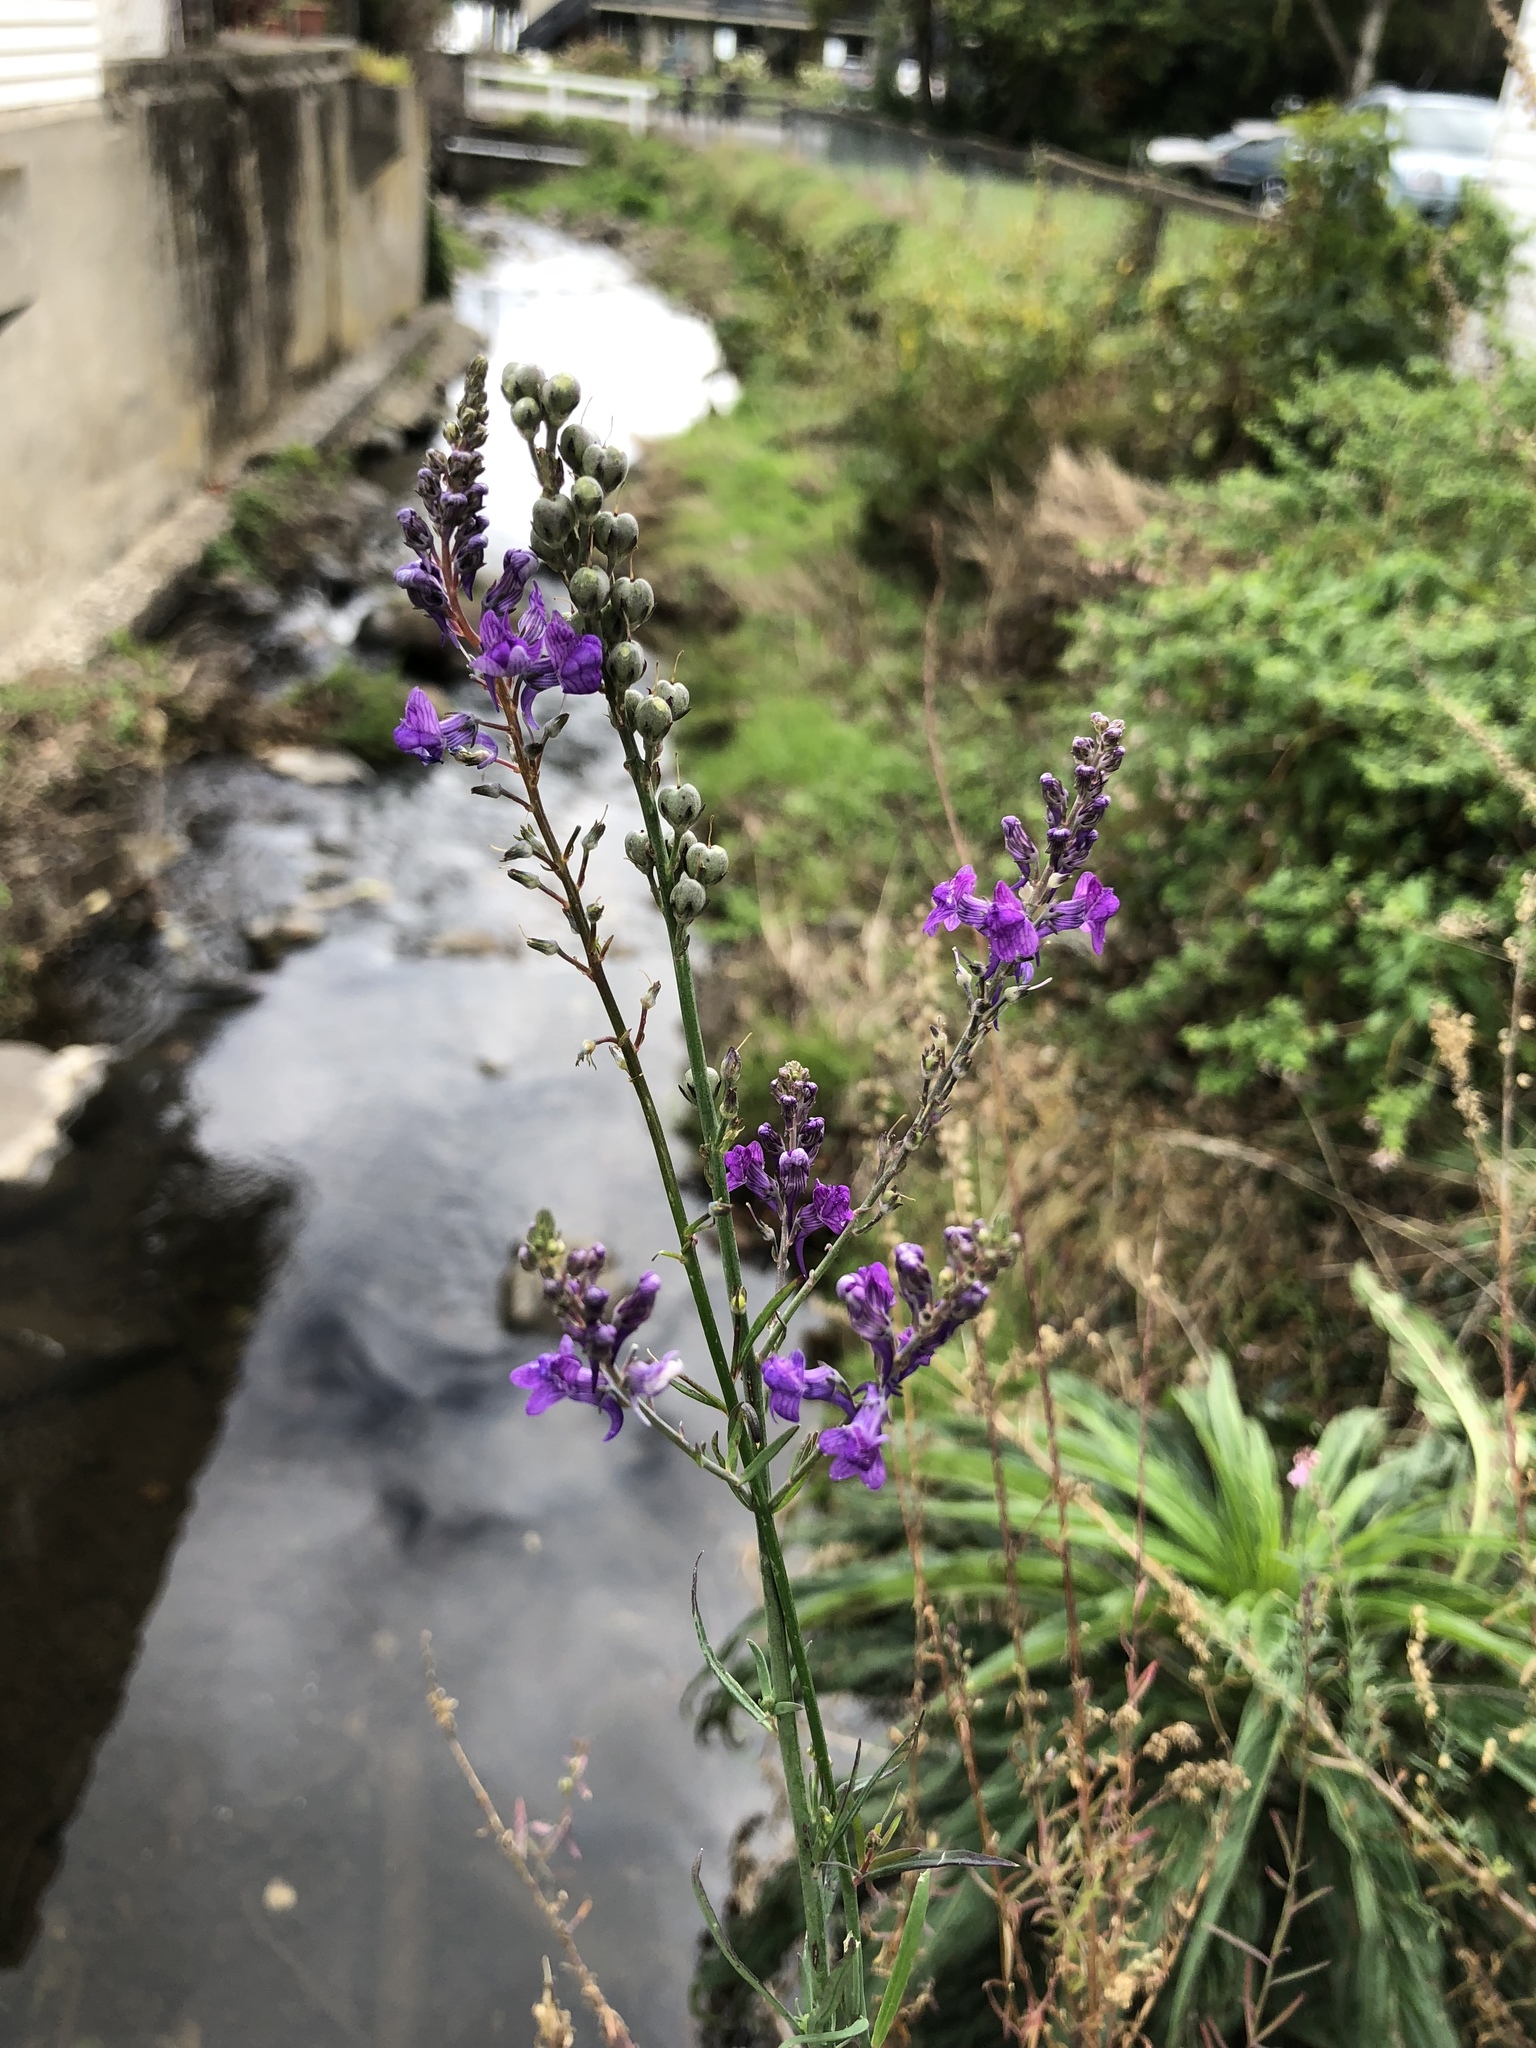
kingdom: Plantae
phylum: Tracheophyta
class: Magnoliopsida
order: Lamiales
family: Plantaginaceae
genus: Linaria
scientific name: Linaria purpurea
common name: Purple toadflax
